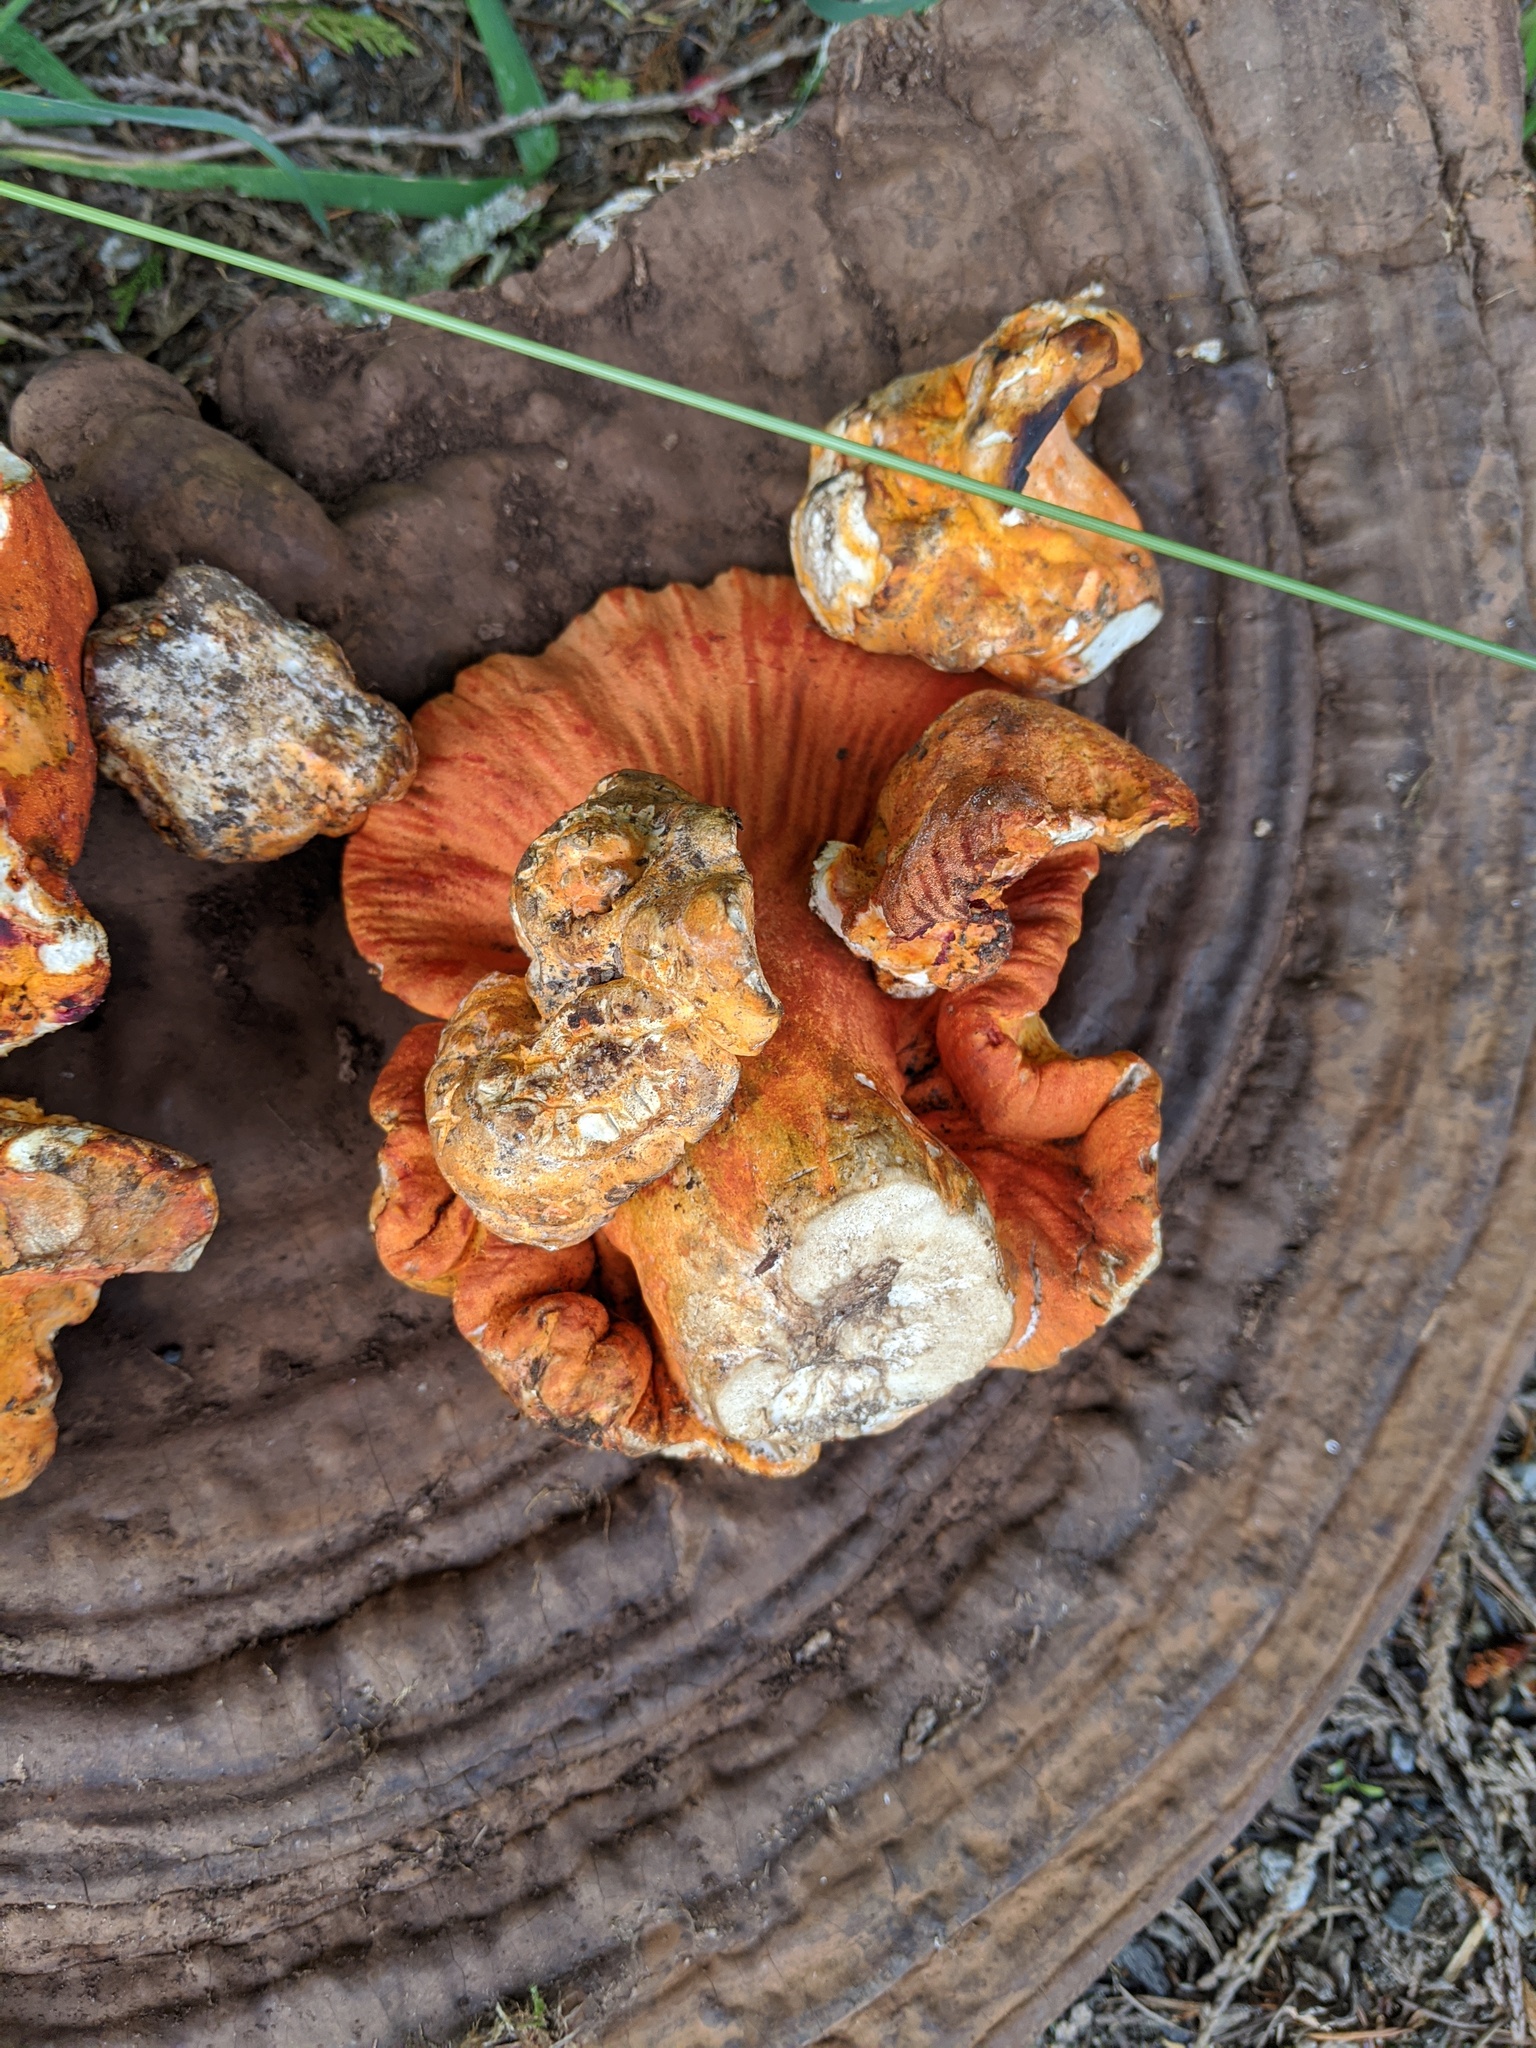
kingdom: Fungi
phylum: Ascomycota
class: Sordariomycetes
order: Hypocreales
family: Hypocreaceae
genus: Hypomyces
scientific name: Hypomyces lactifluorum
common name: Lobster mushroom
